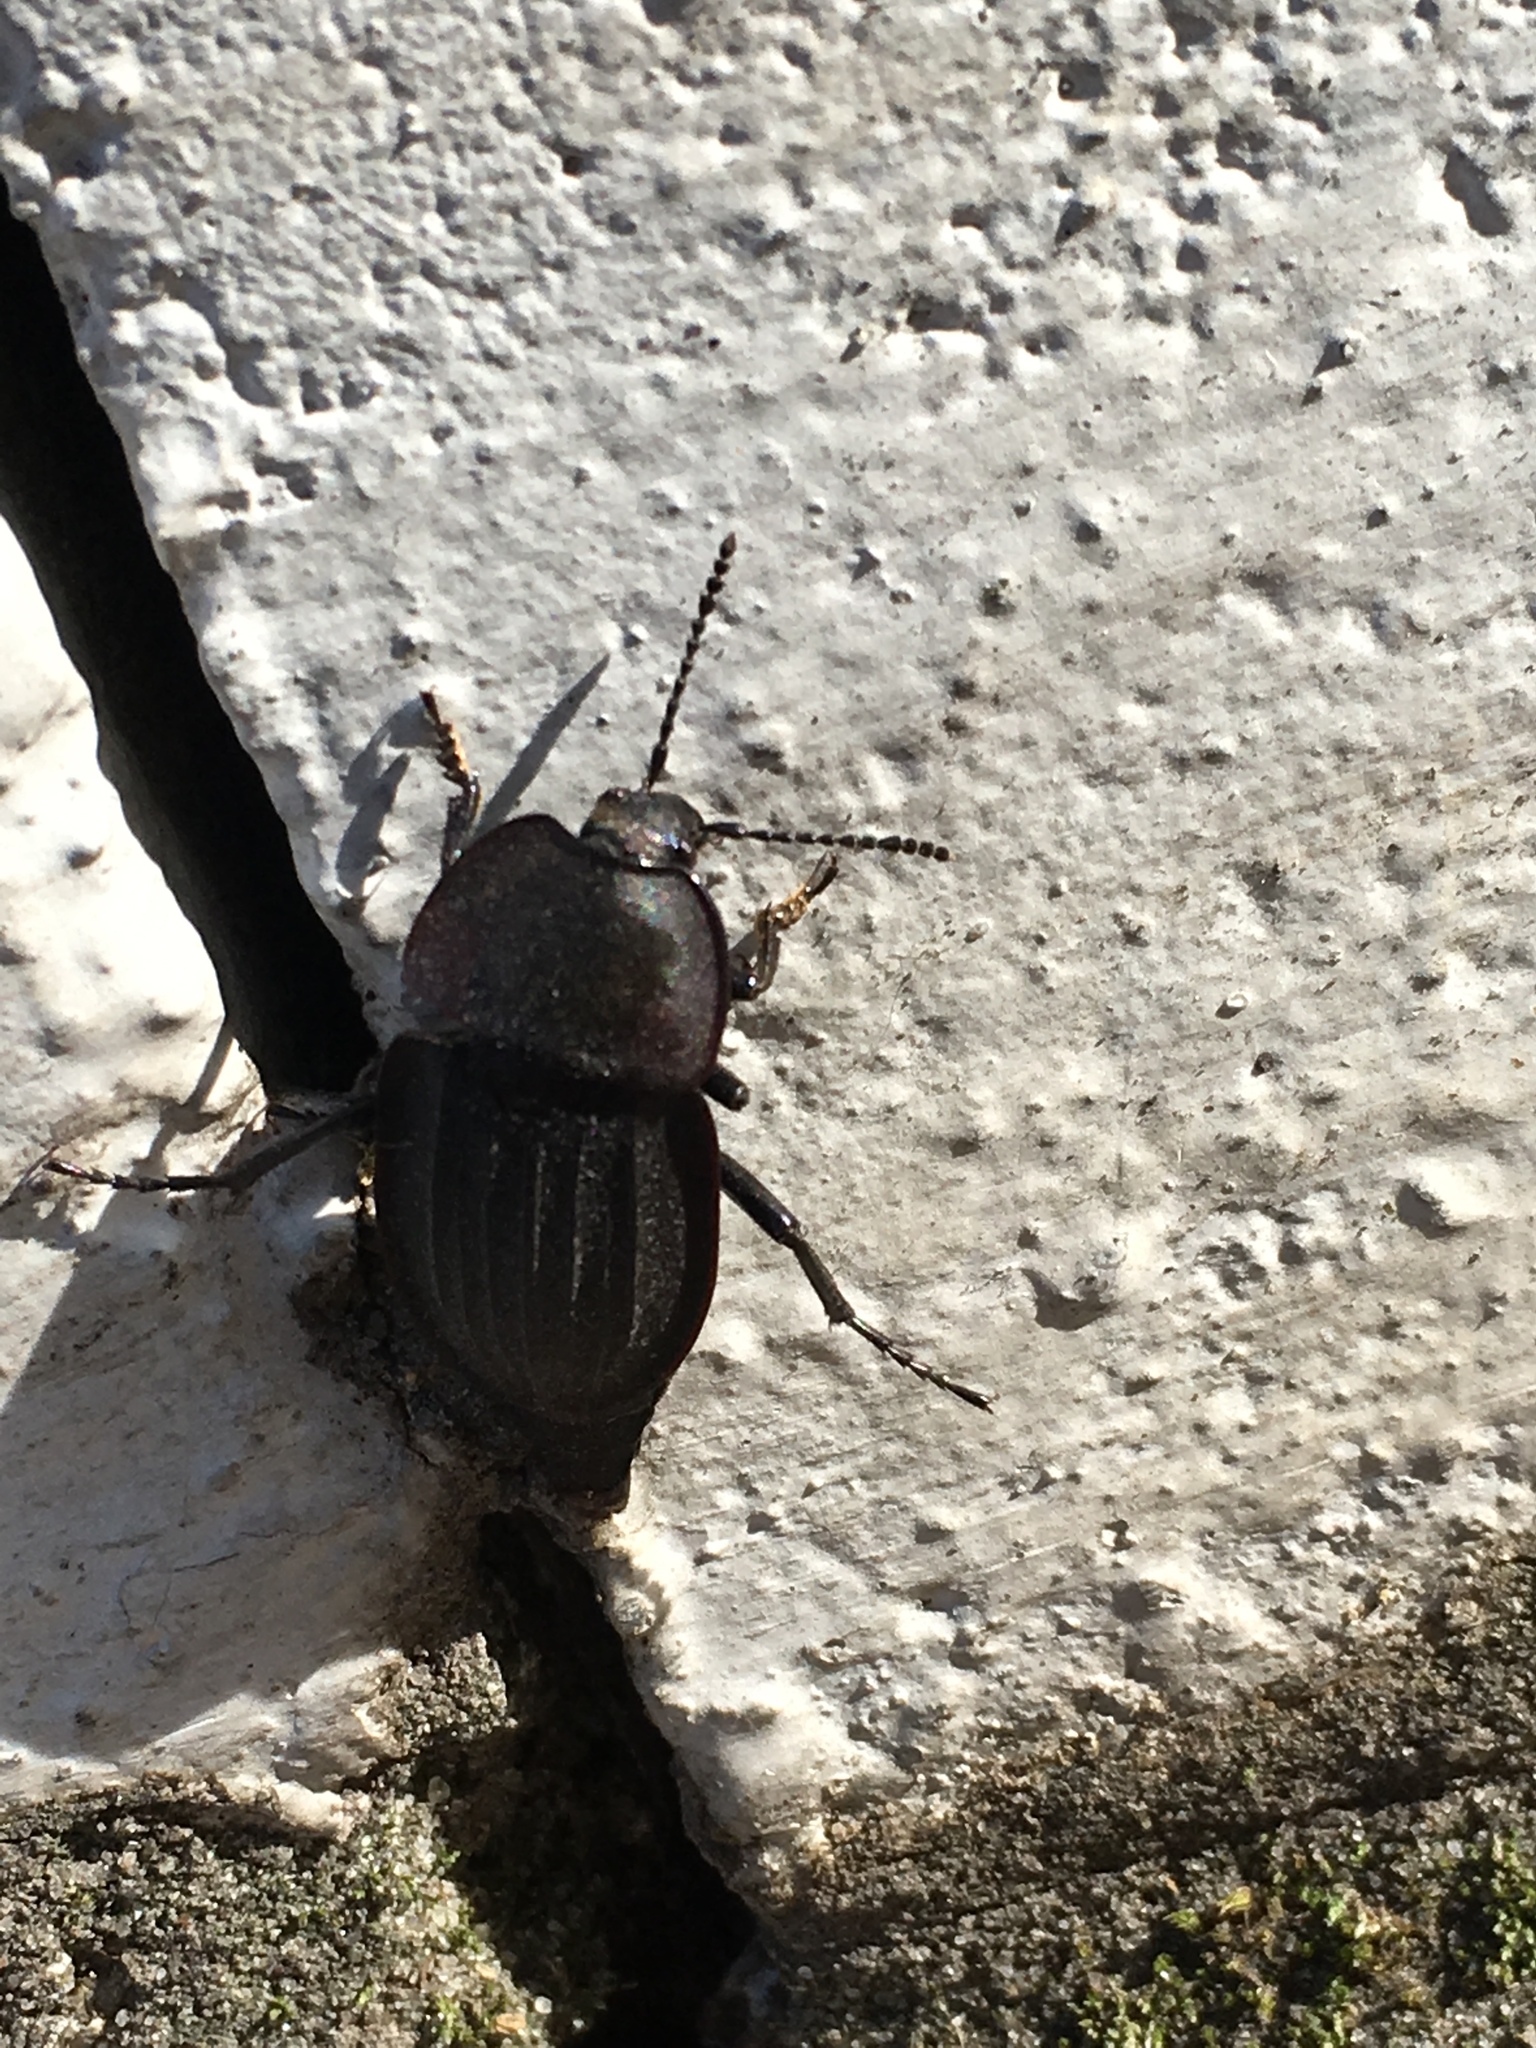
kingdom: Animalia
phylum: Arthropoda
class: Insecta
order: Coleoptera
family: Staphylinidae
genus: Silpha
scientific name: Silpha carinata
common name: Silphid beetle
